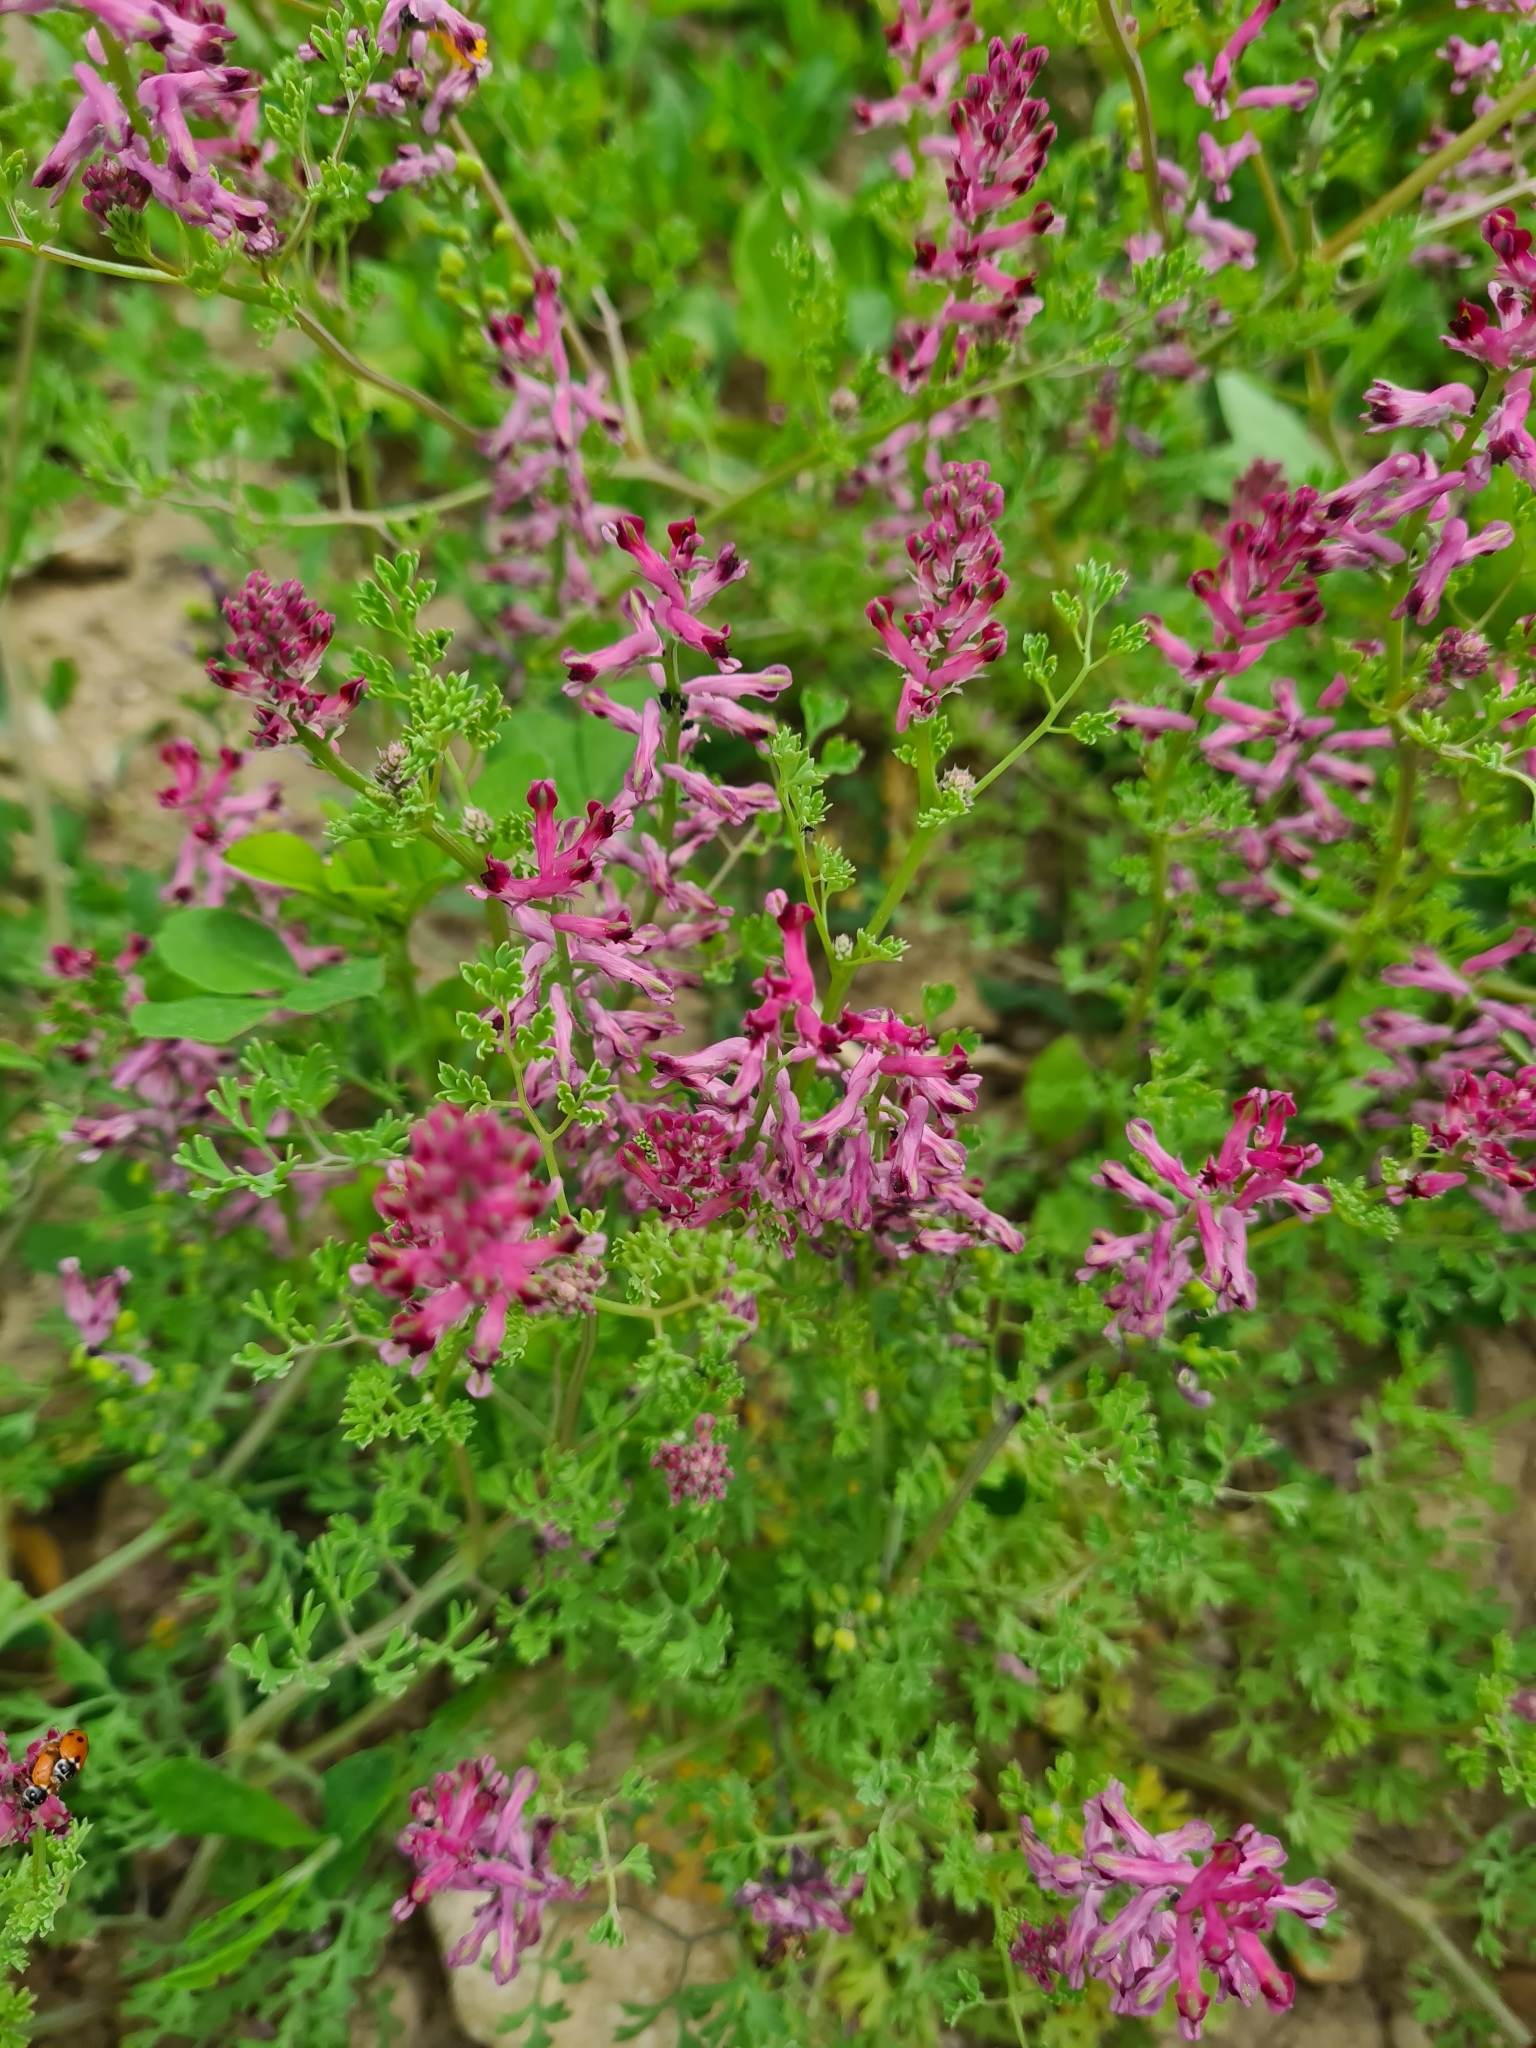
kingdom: Plantae
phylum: Tracheophyta
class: Magnoliopsida
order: Ranunculales
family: Papaveraceae
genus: Fumaria
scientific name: Fumaria officinalis
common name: Common fumitory
